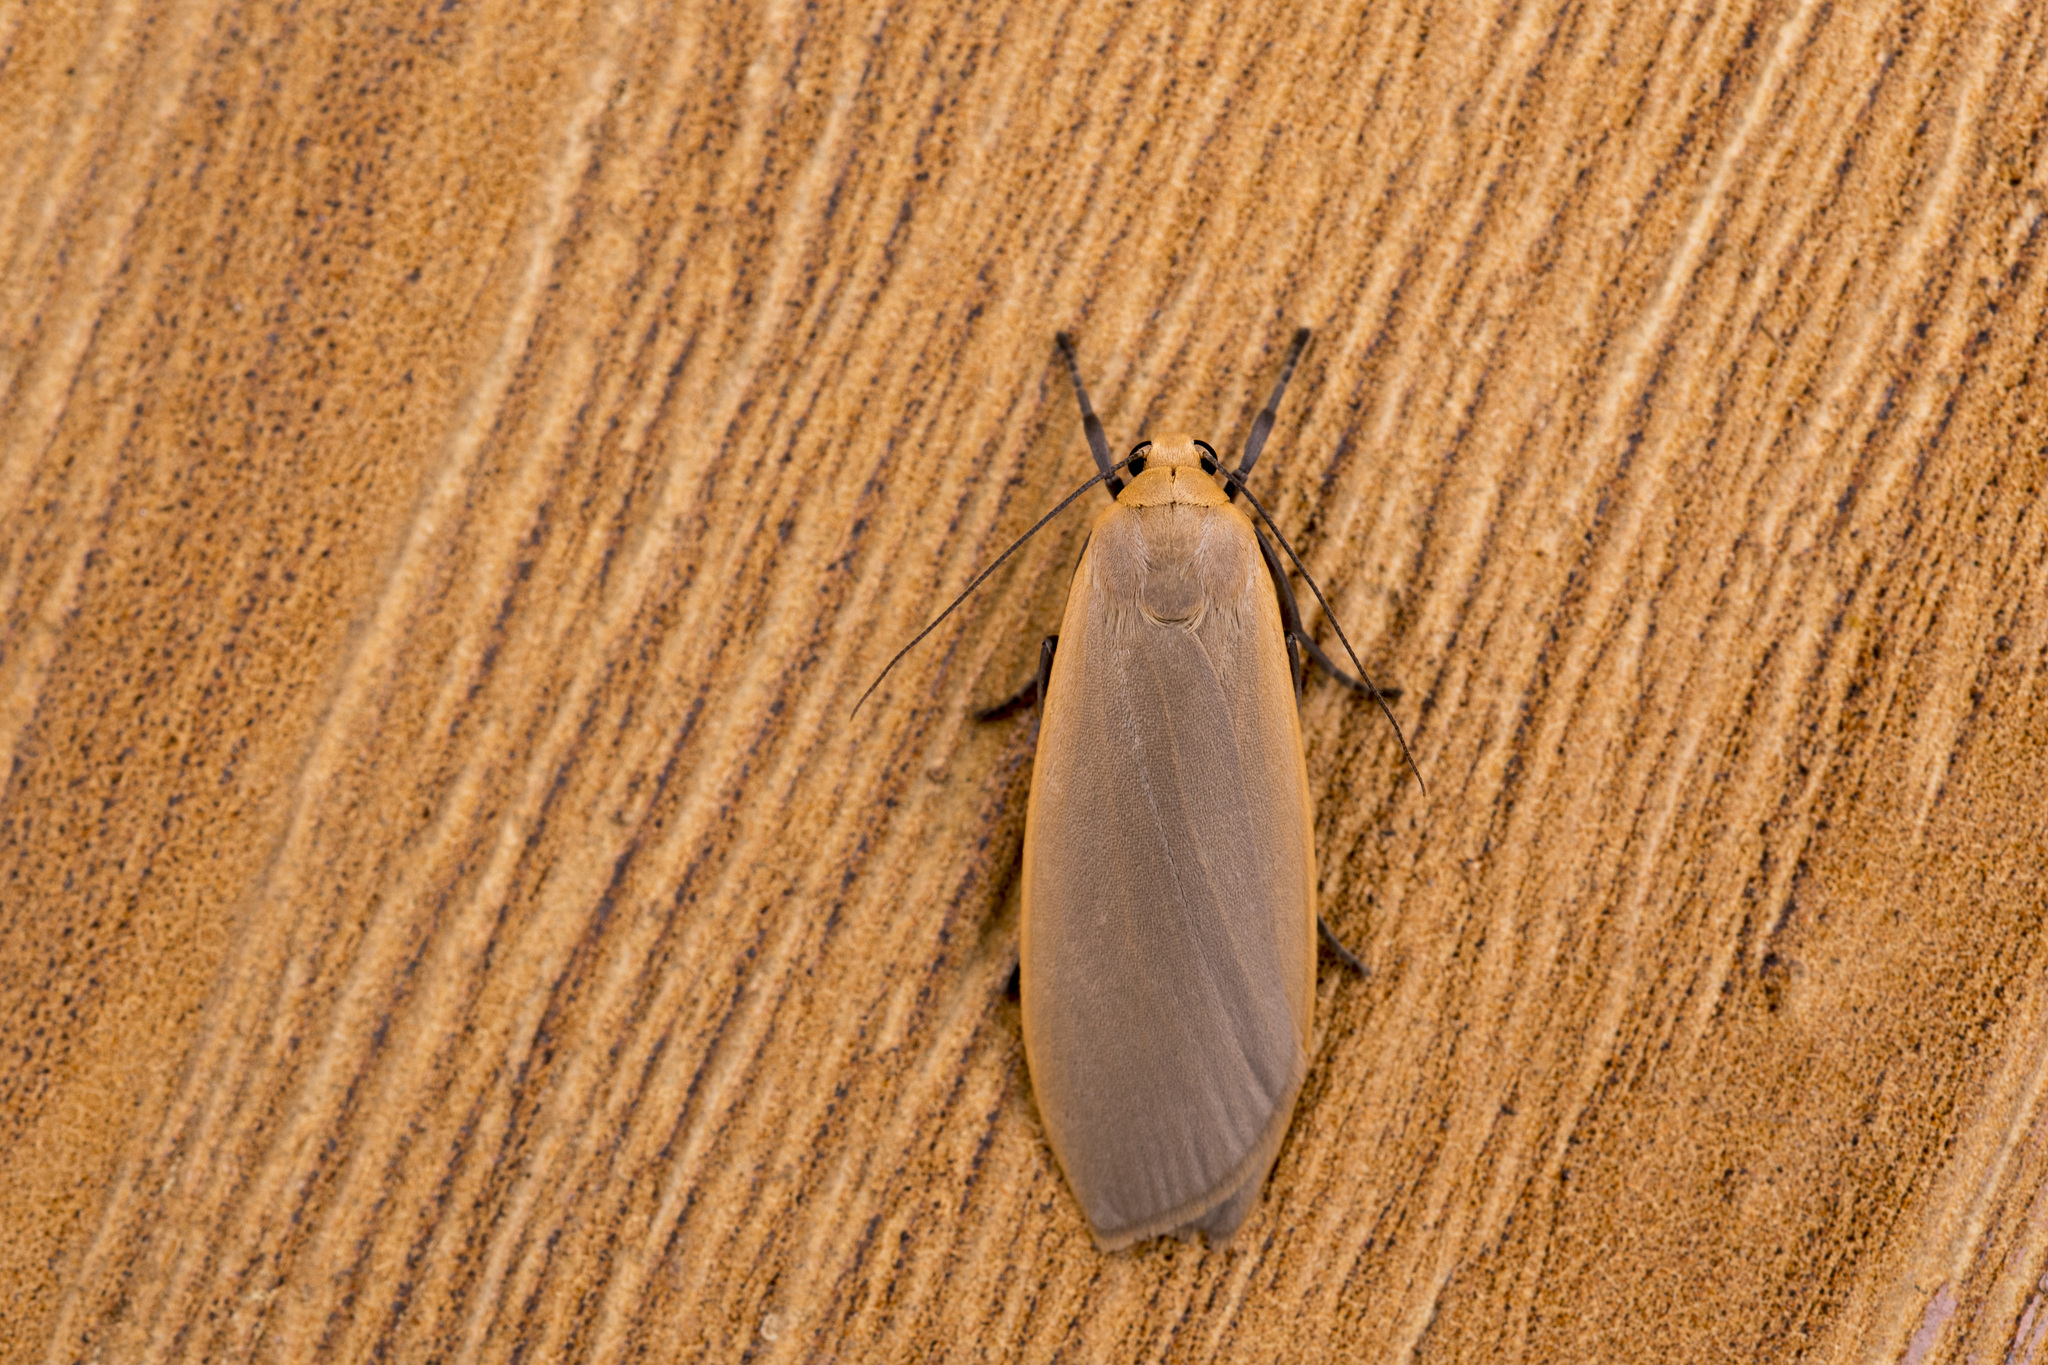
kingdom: Animalia
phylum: Arthropoda
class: Insecta
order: Lepidoptera
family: Erebidae
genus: Gandhara
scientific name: Gandhara jieenchenae
